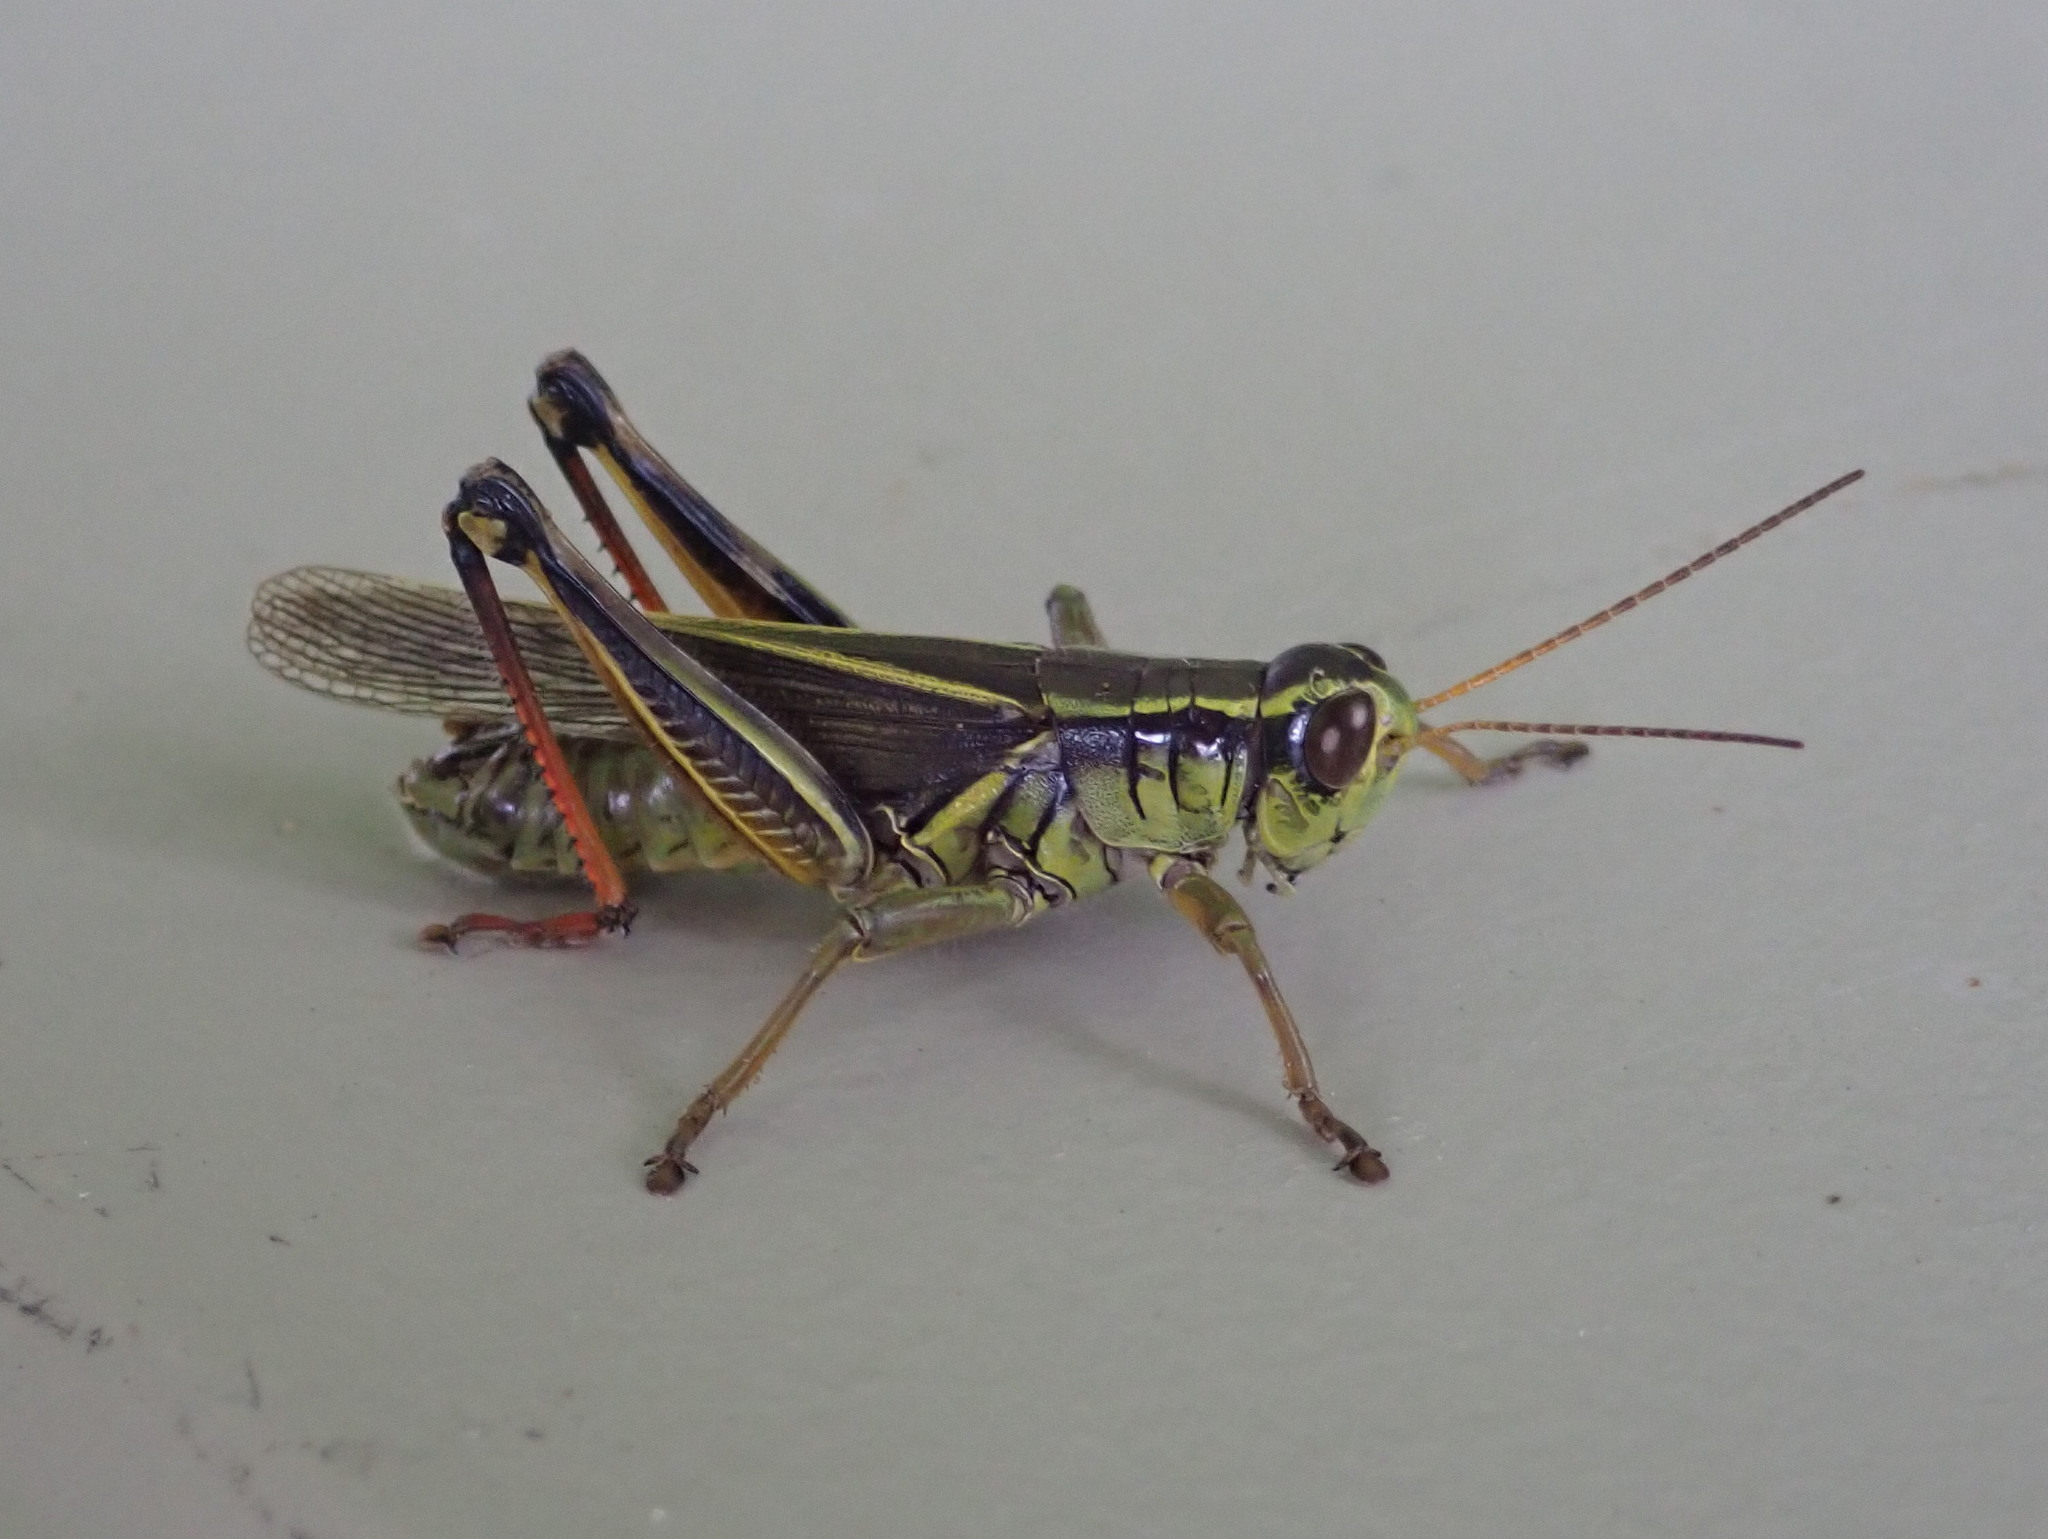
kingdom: Animalia
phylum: Arthropoda
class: Insecta
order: Orthoptera
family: Acrididae
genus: Melanoplus
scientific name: Melanoplus bivittatus
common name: Two-striped grasshopper
